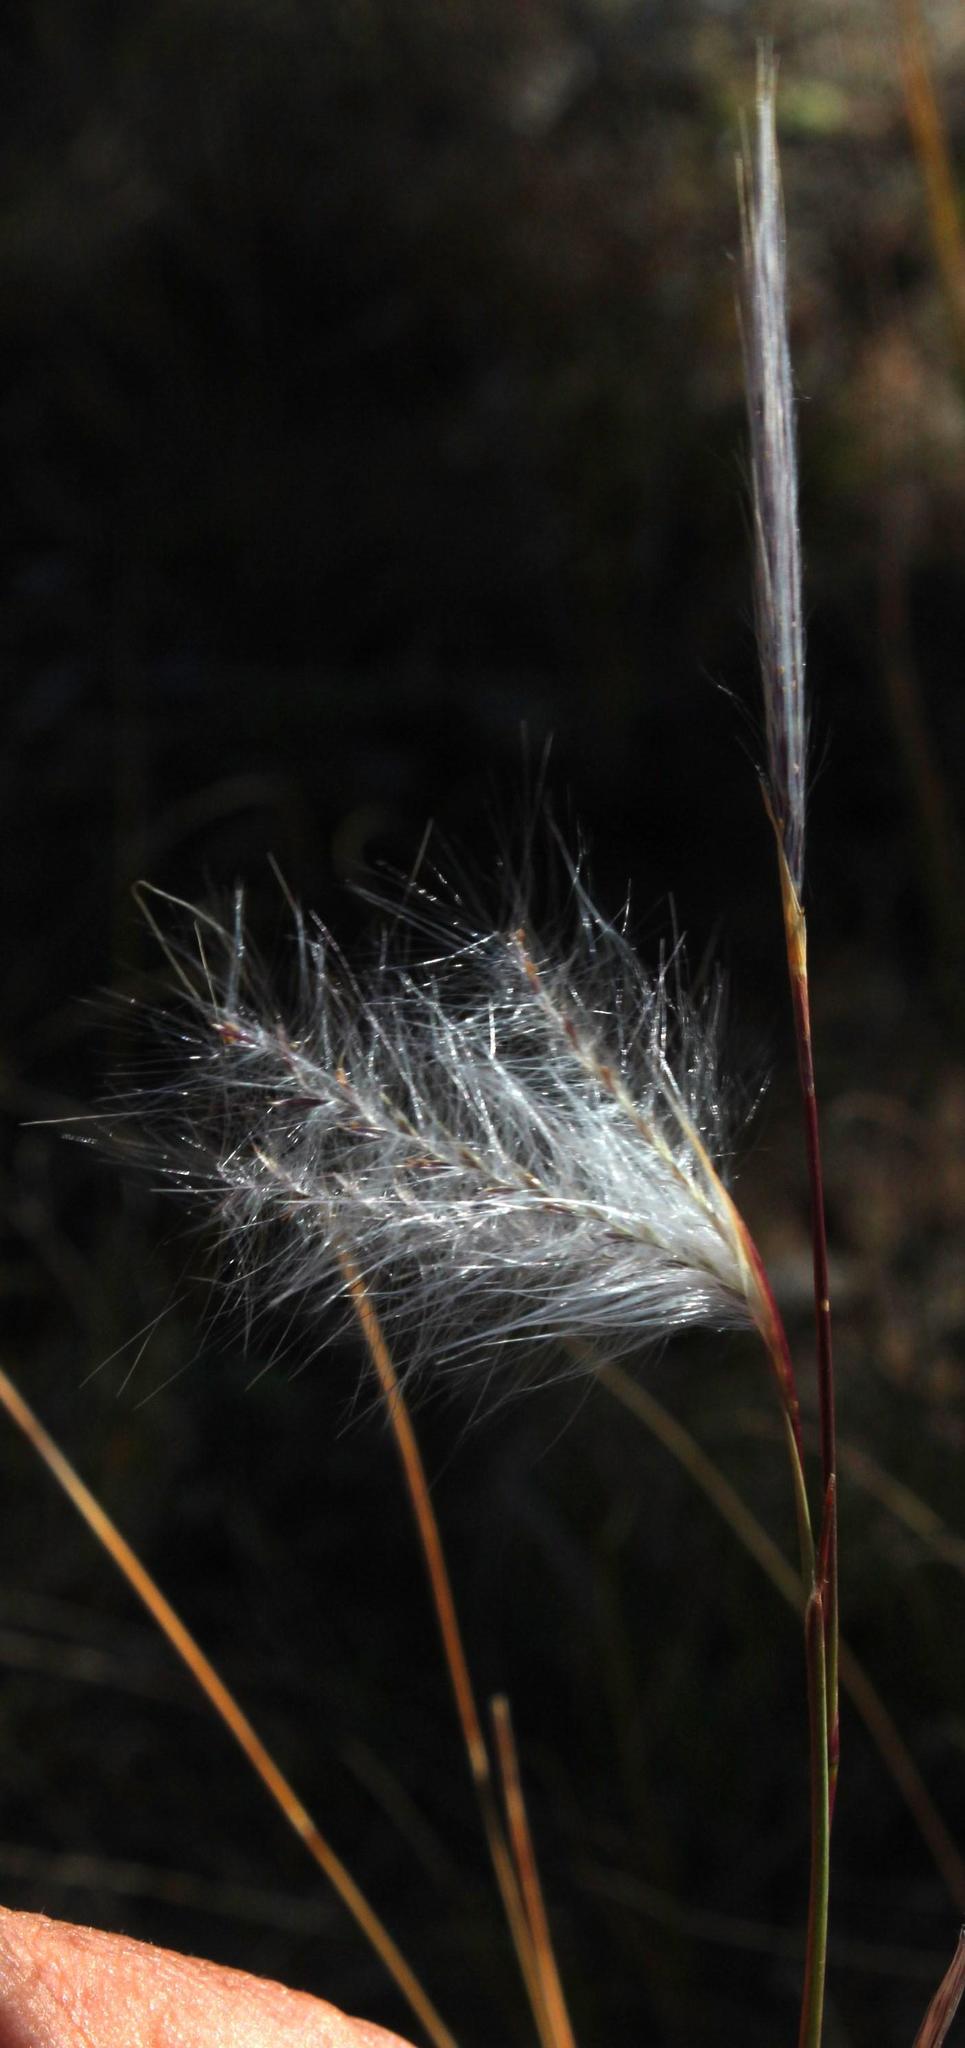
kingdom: Plantae
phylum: Tracheophyta
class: Liliopsida
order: Poales
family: Poaceae
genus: Andropogon
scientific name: Andropogon eucomus
